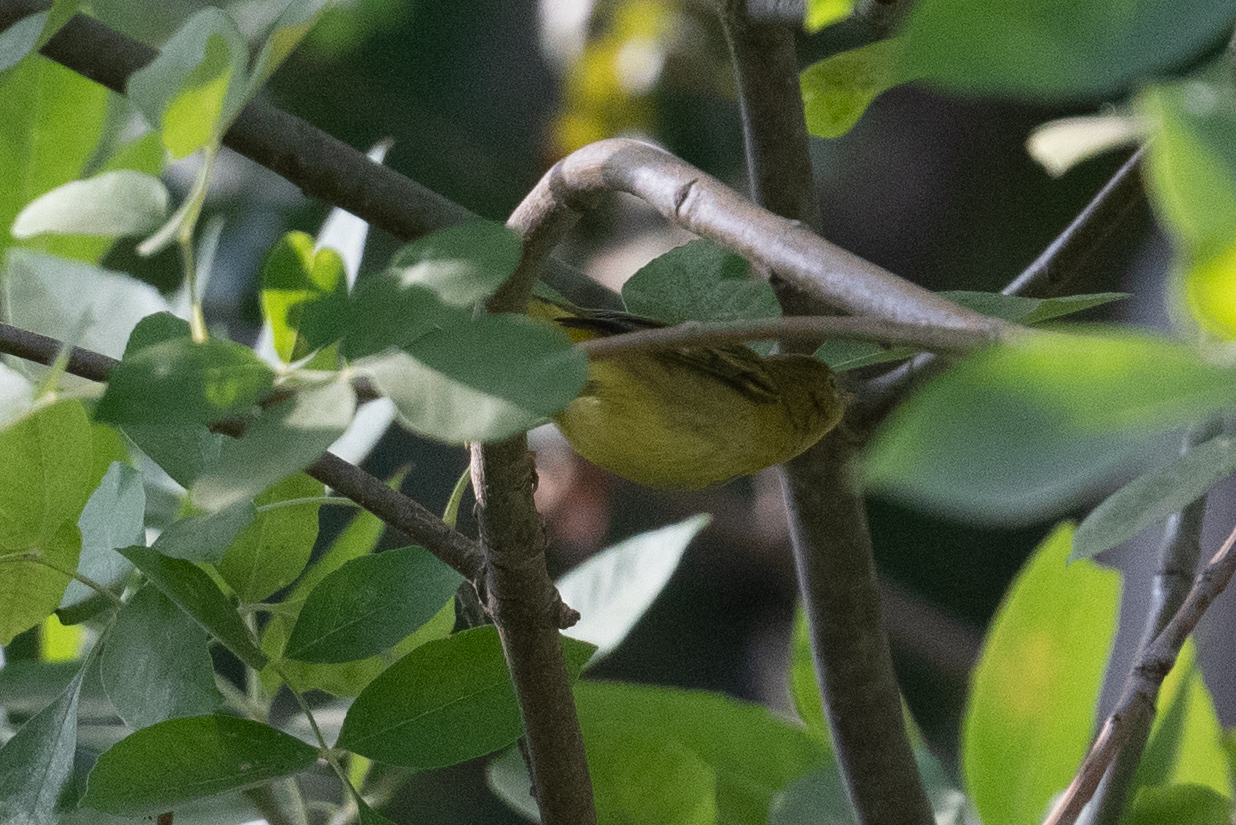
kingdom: Animalia
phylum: Chordata
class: Aves
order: Passeriformes
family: Parulidae
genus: Setophaga
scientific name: Setophaga petechia
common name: Yellow warbler
